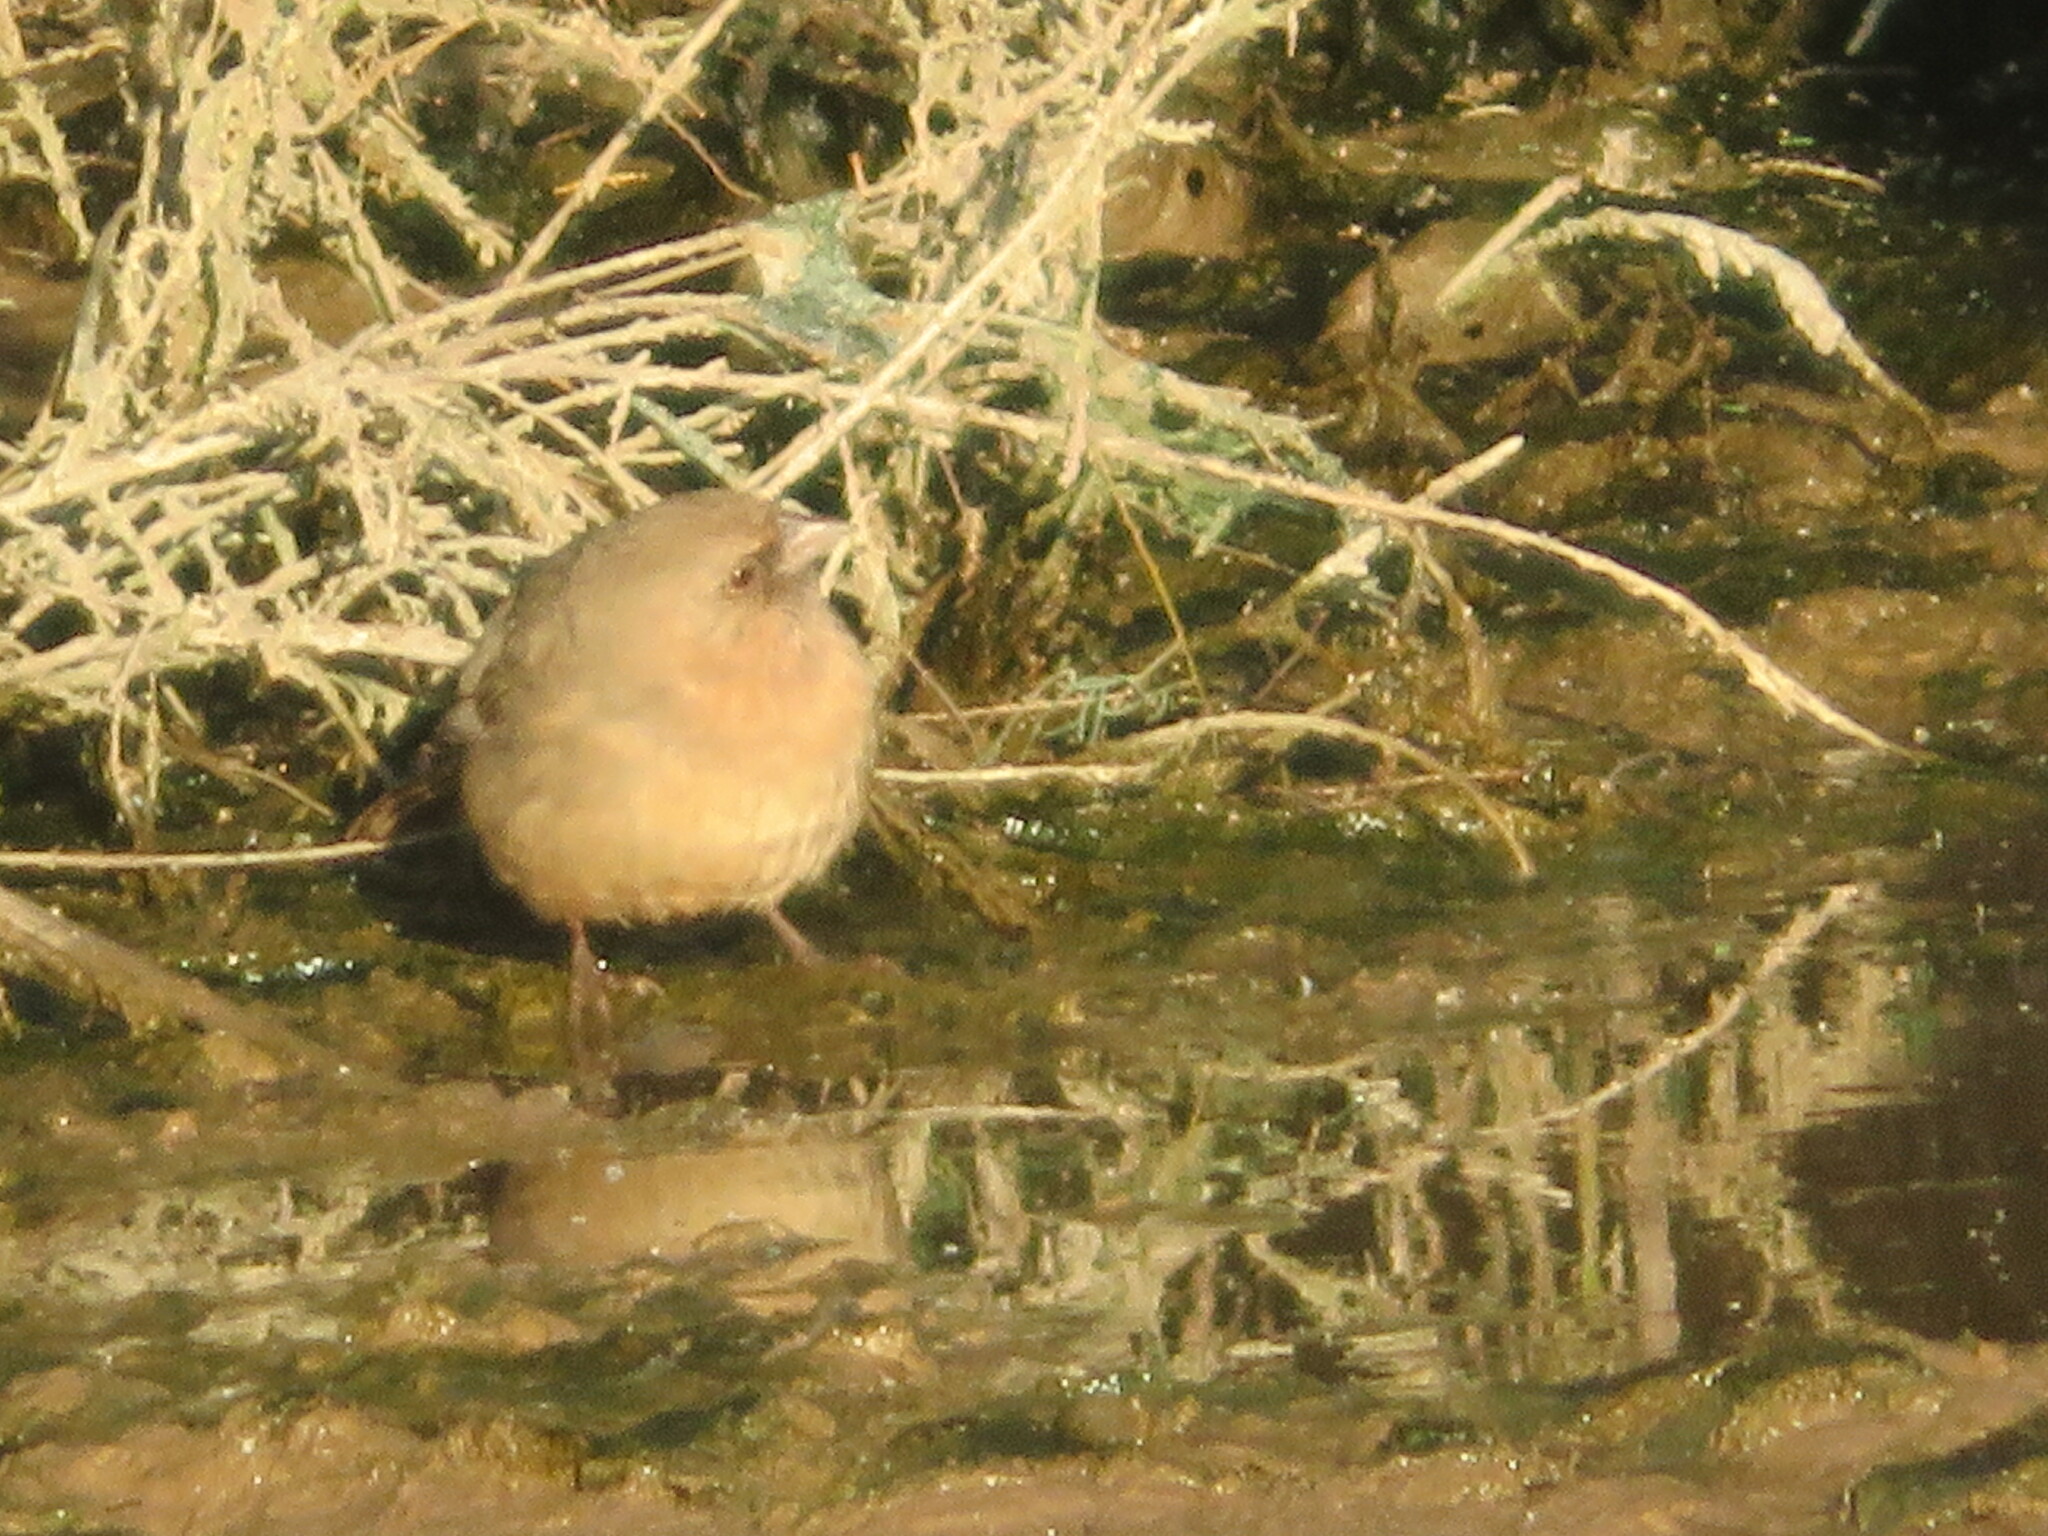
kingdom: Animalia
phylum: Chordata
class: Aves
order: Passeriformes
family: Passerellidae
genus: Melozone
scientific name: Melozone aberti
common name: Abert's towhee
